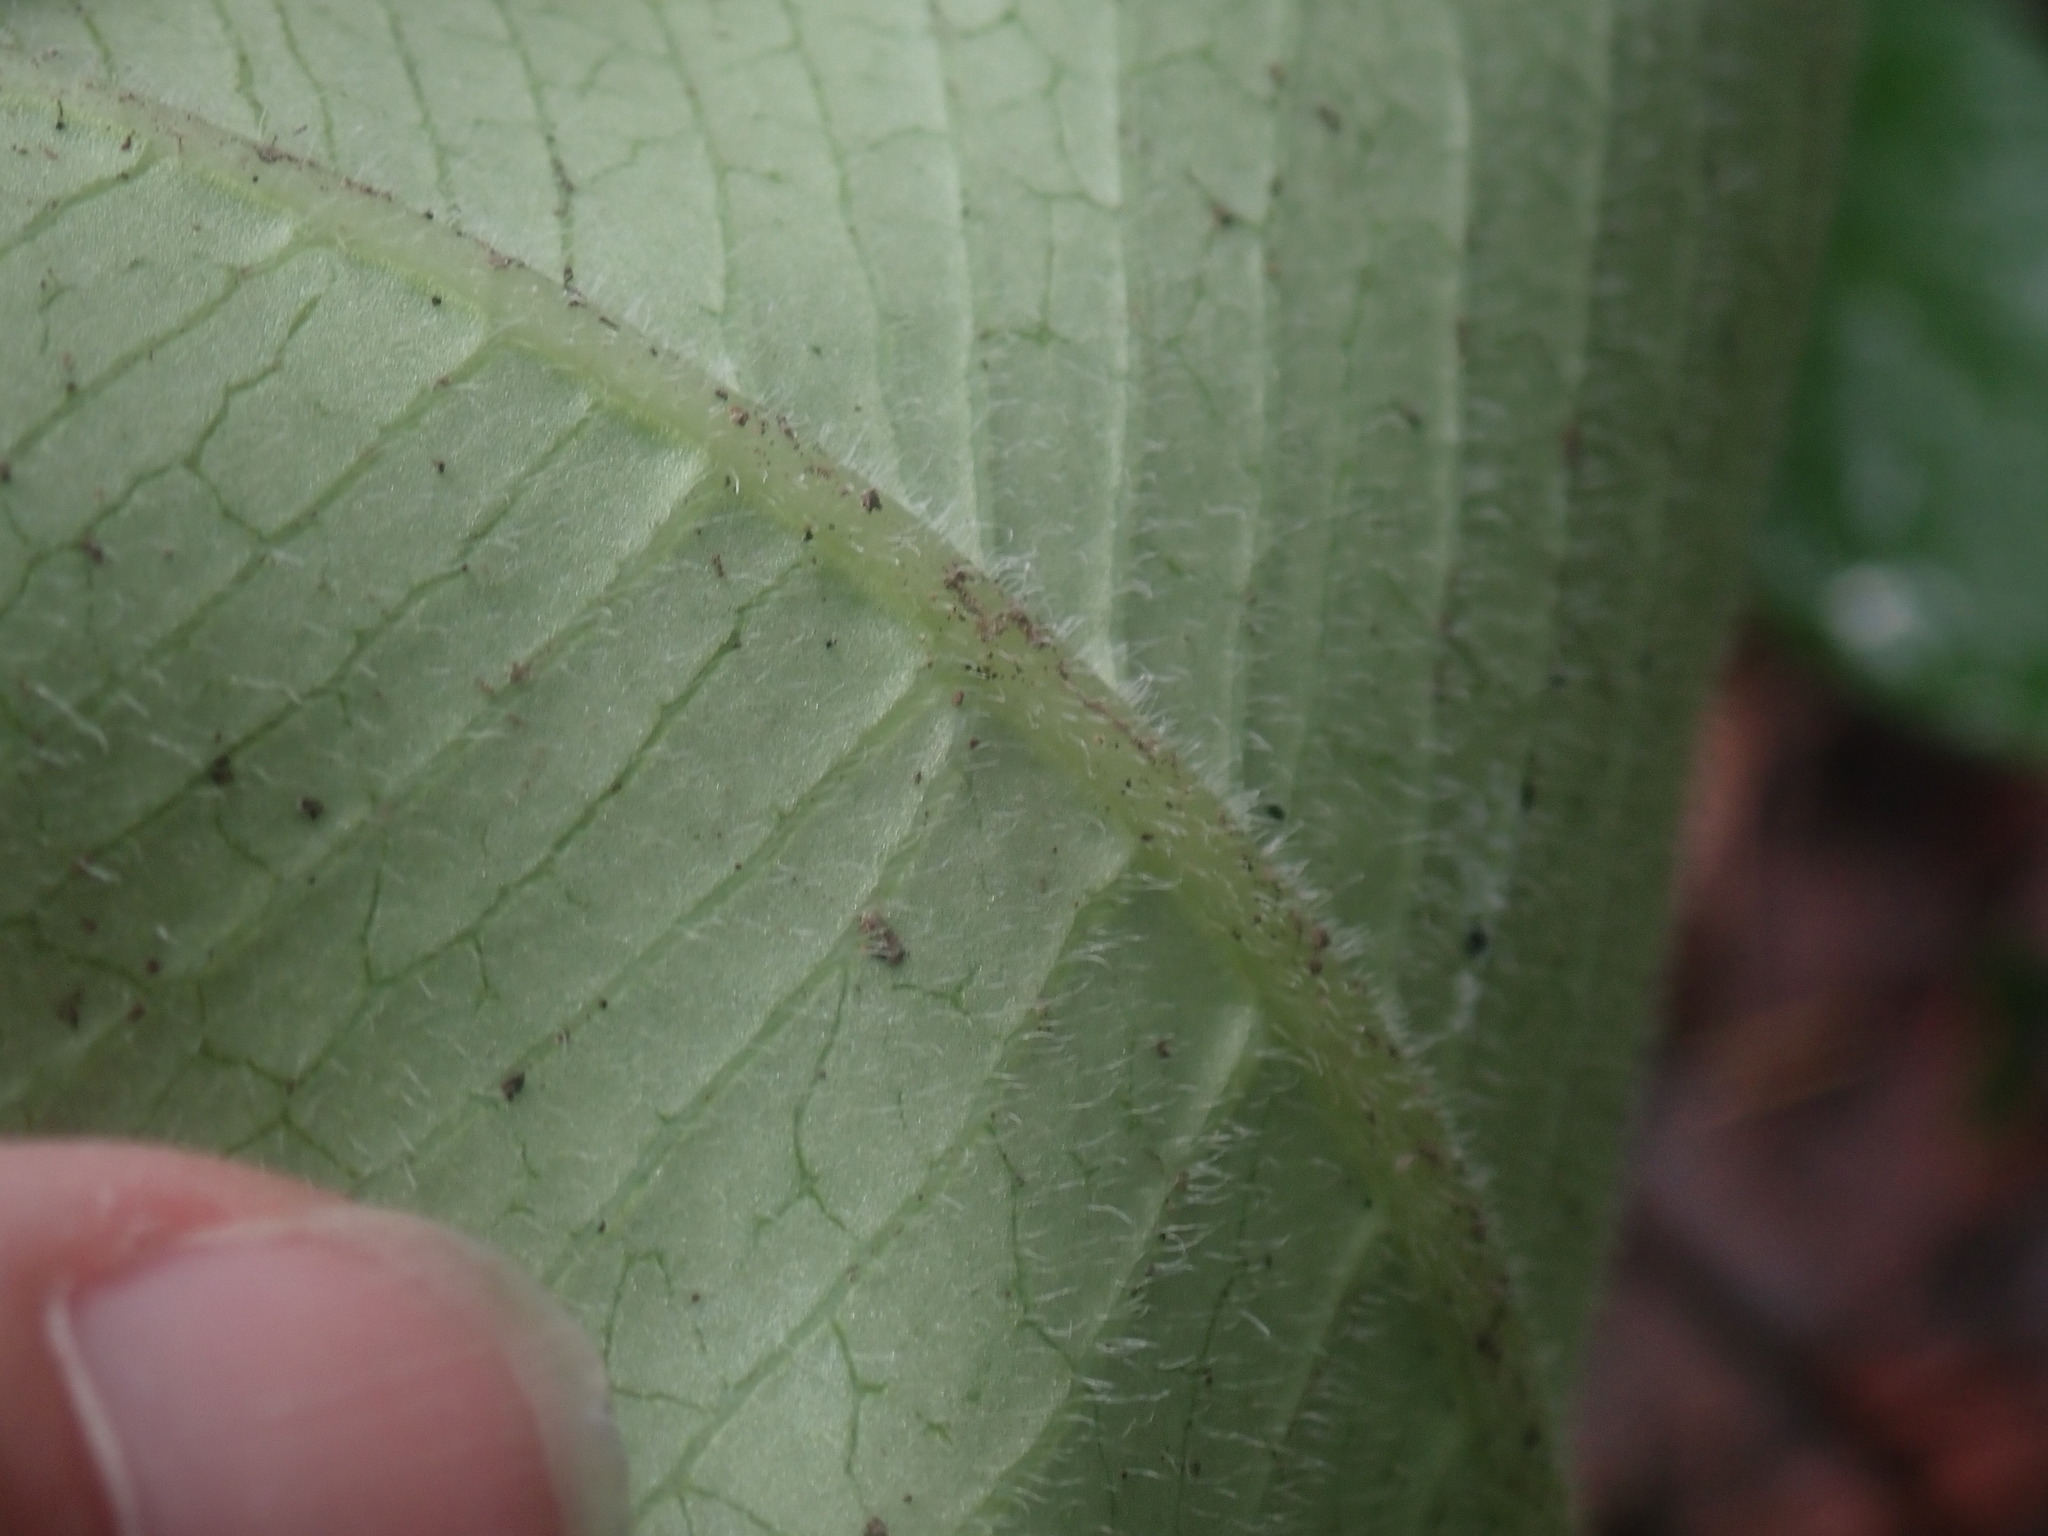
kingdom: Plantae
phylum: Tracheophyta
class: Magnoliopsida
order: Gentianales
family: Apocynaceae
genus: Asclepias
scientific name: Asclepias lemmonii
